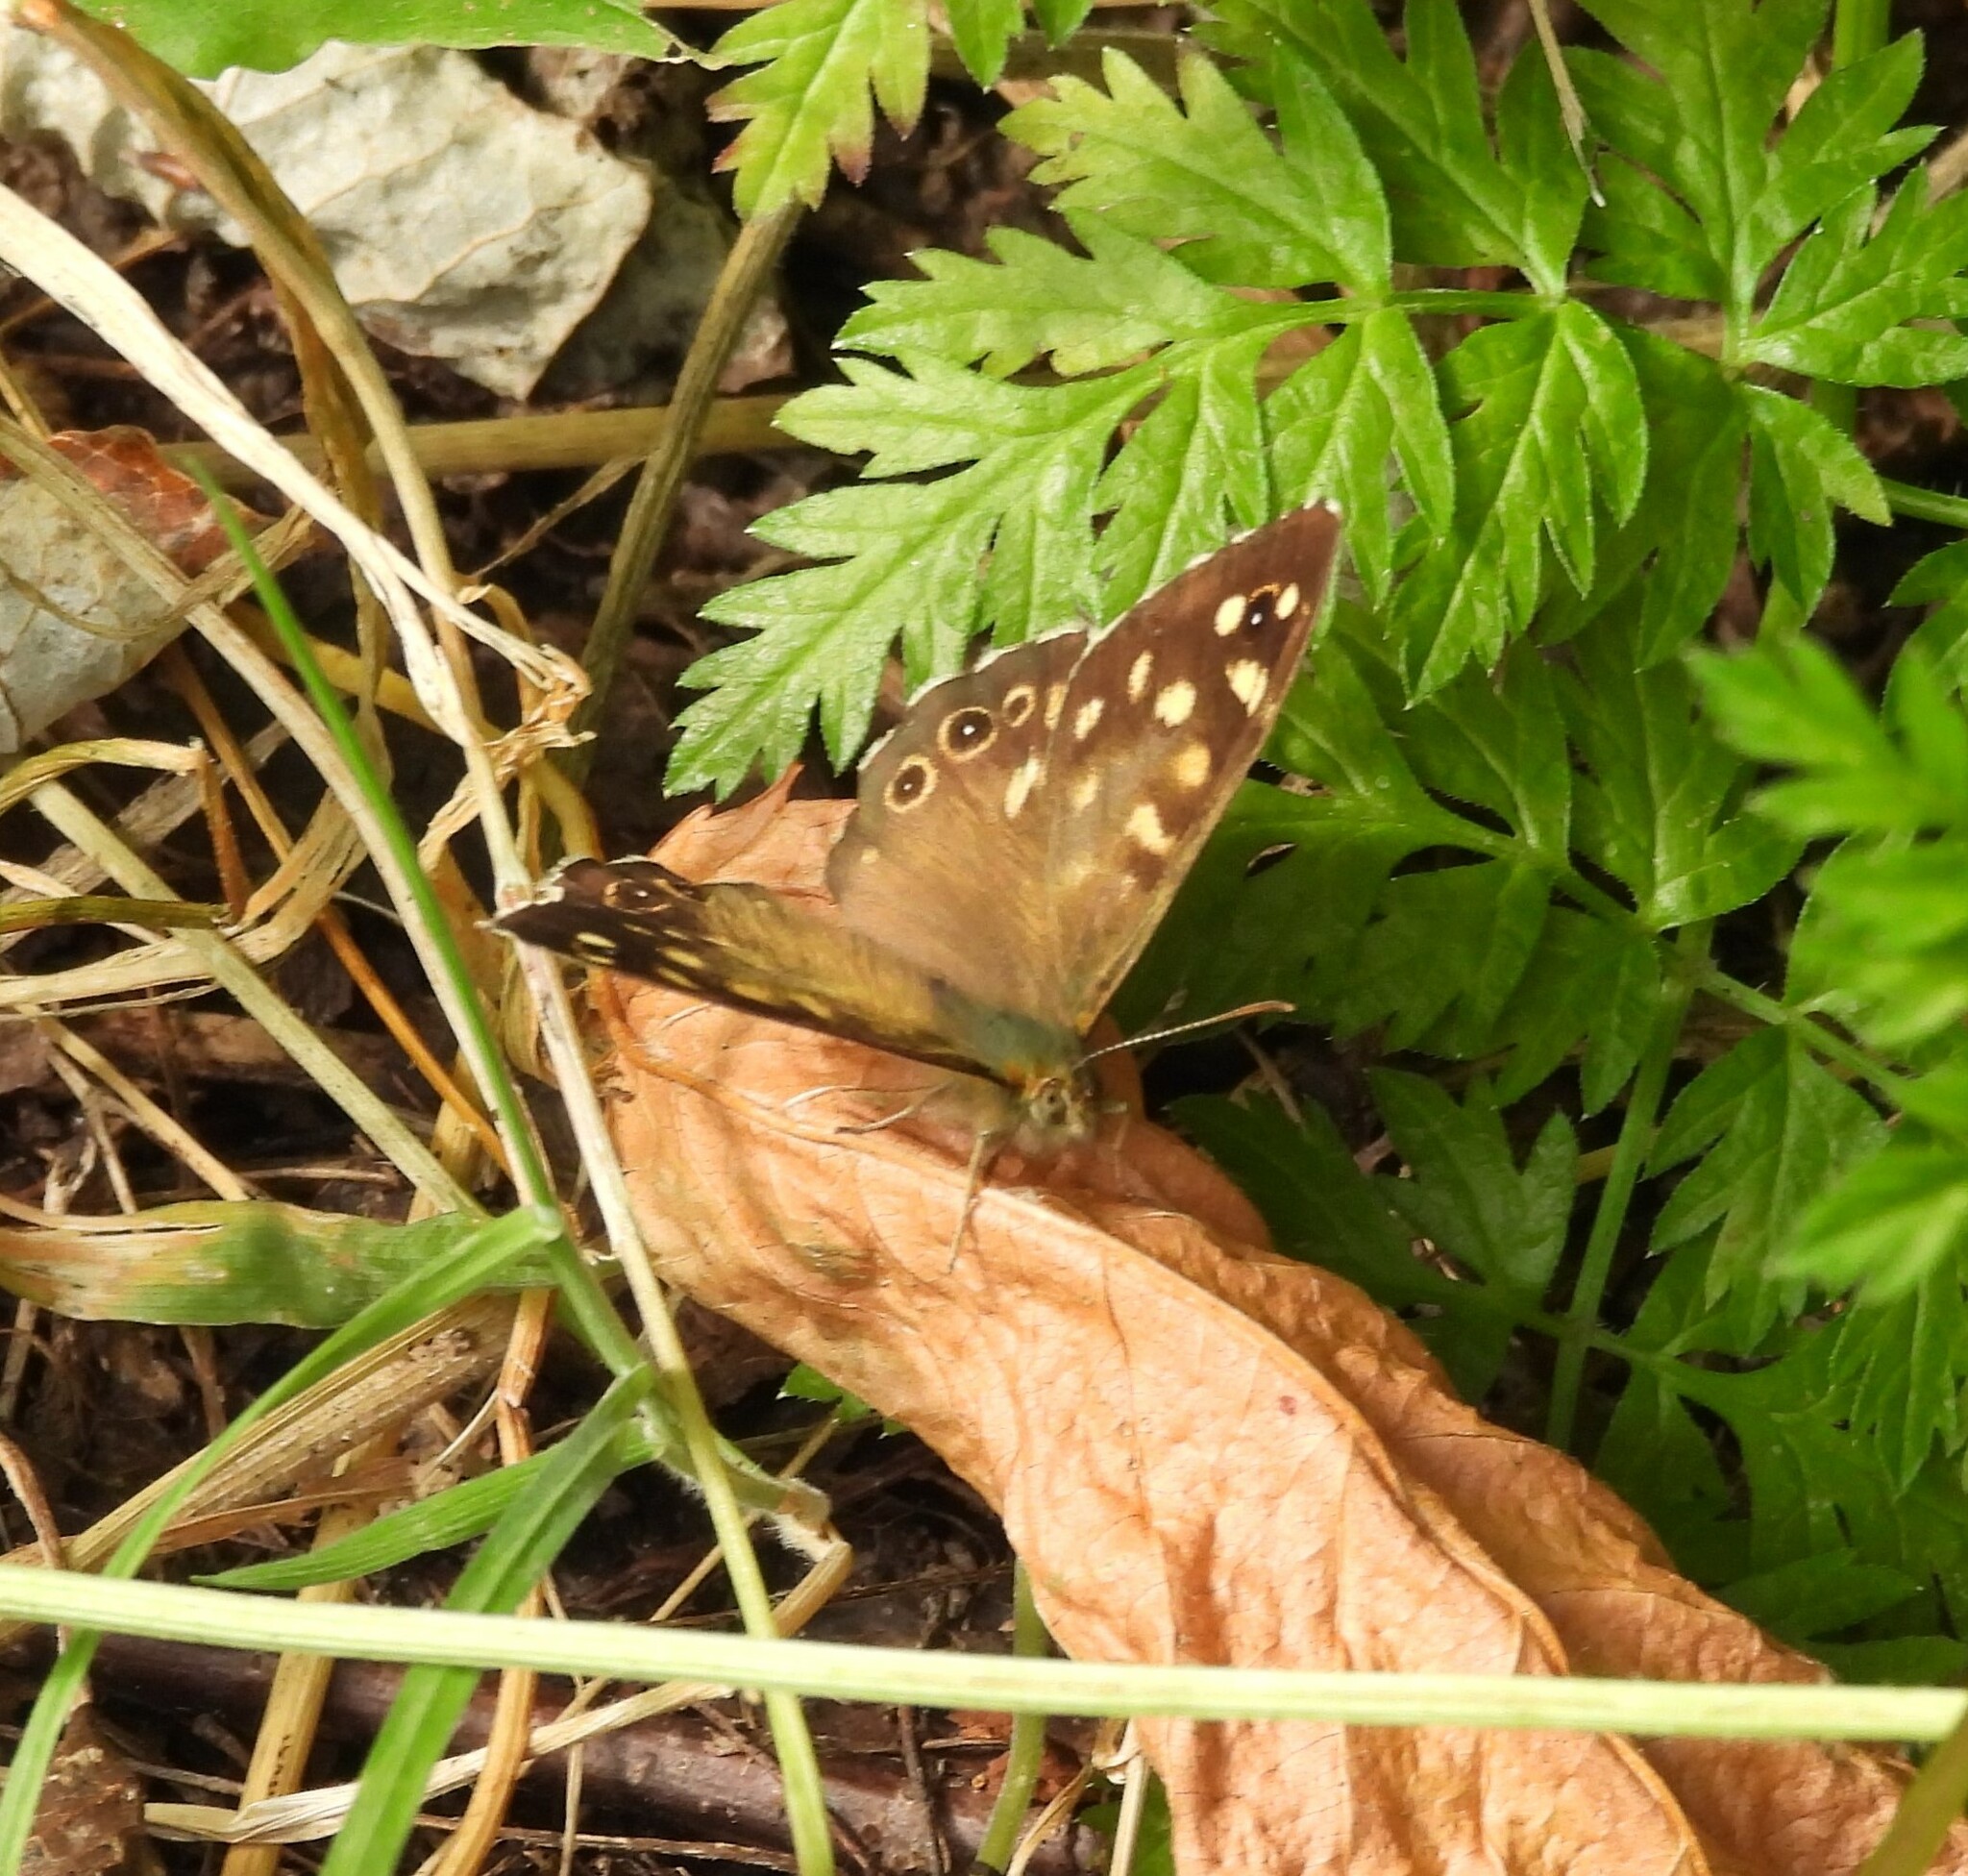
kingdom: Animalia
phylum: Arthropoda
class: Insecta
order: Lepidoptera
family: Nymphalidae
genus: Pararge
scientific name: Pararge aegeria
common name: Speckled wood
